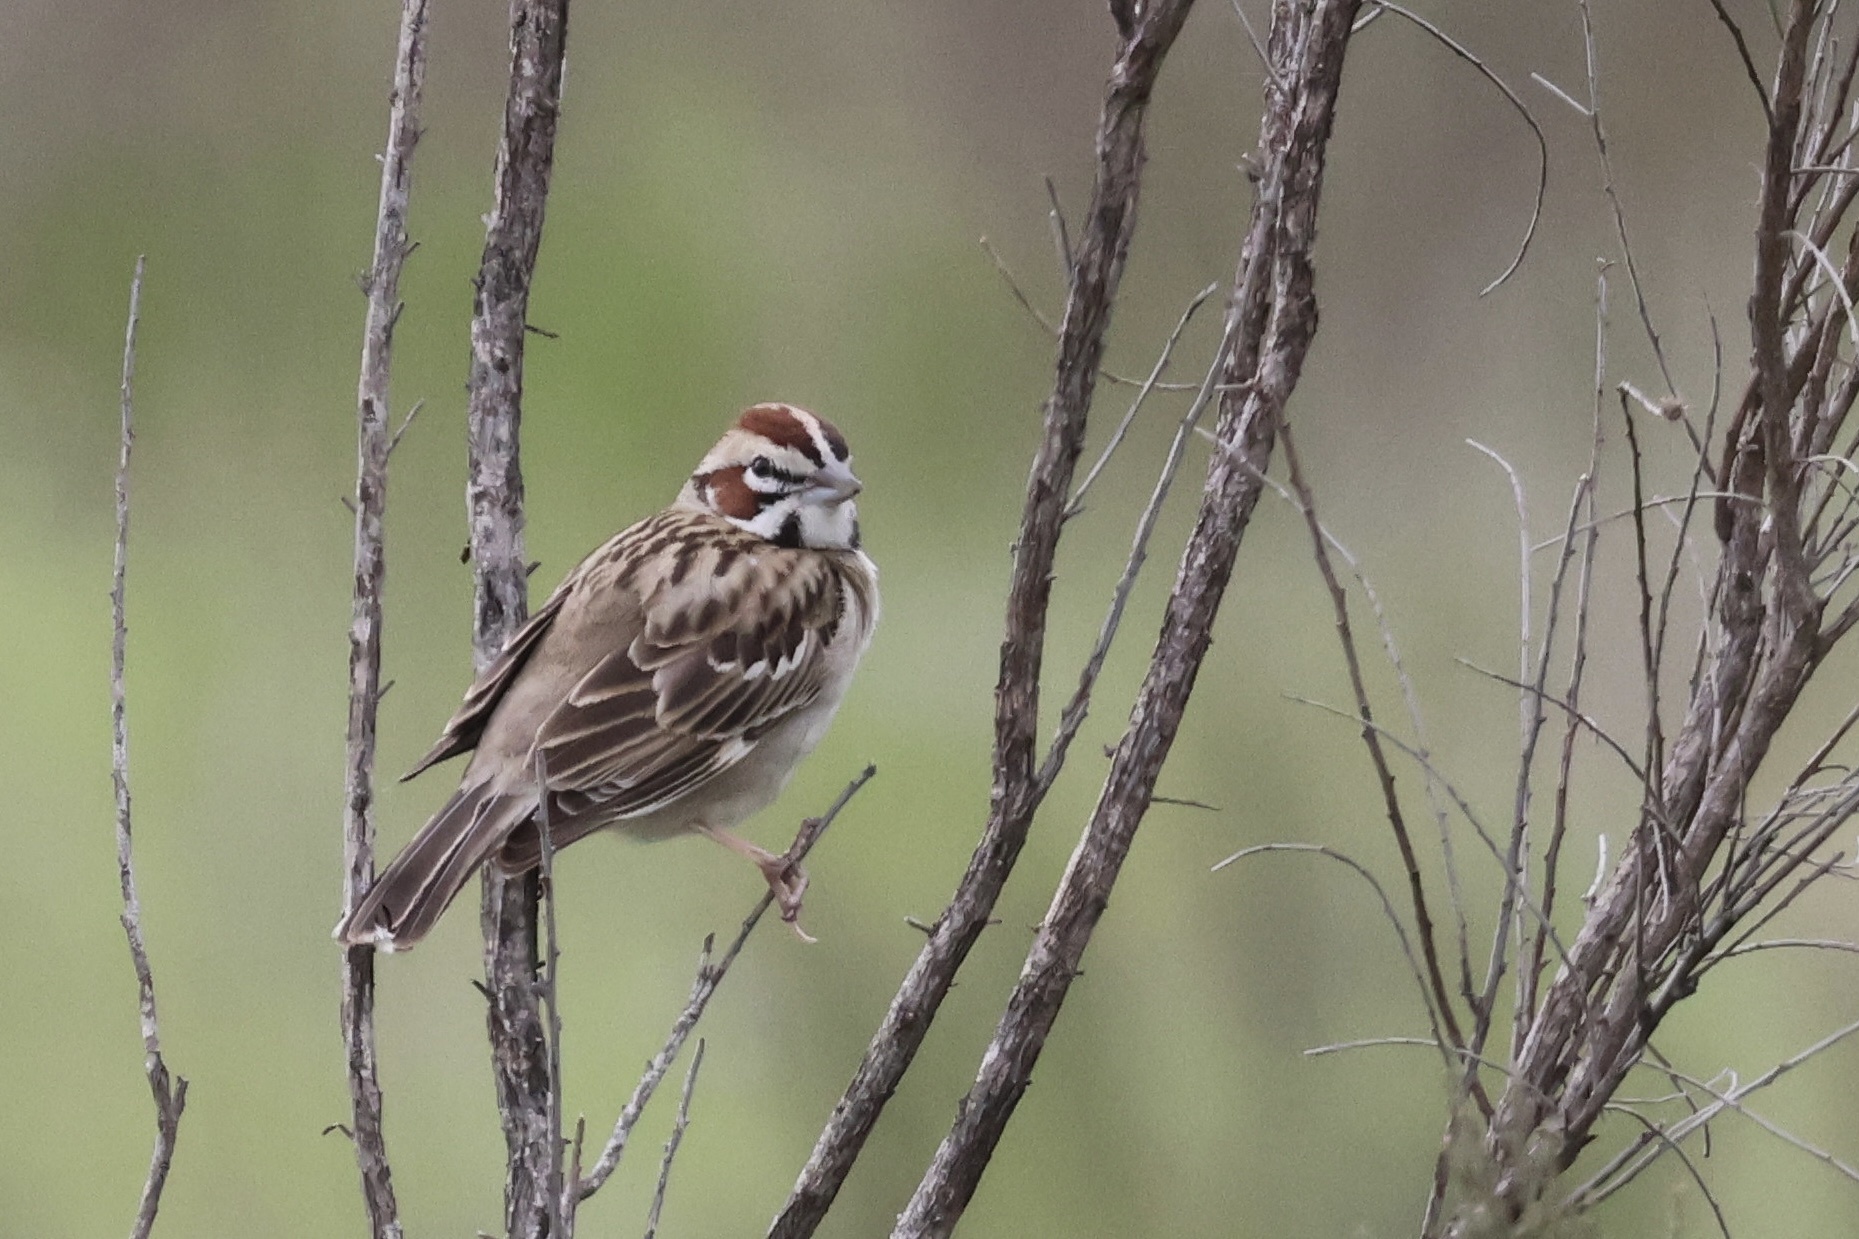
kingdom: Animalia
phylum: Chordata
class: Aves
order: Passeriformes
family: Passerellidae
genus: Chondestes
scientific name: Chondestes grammacus
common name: Lark sparrow
